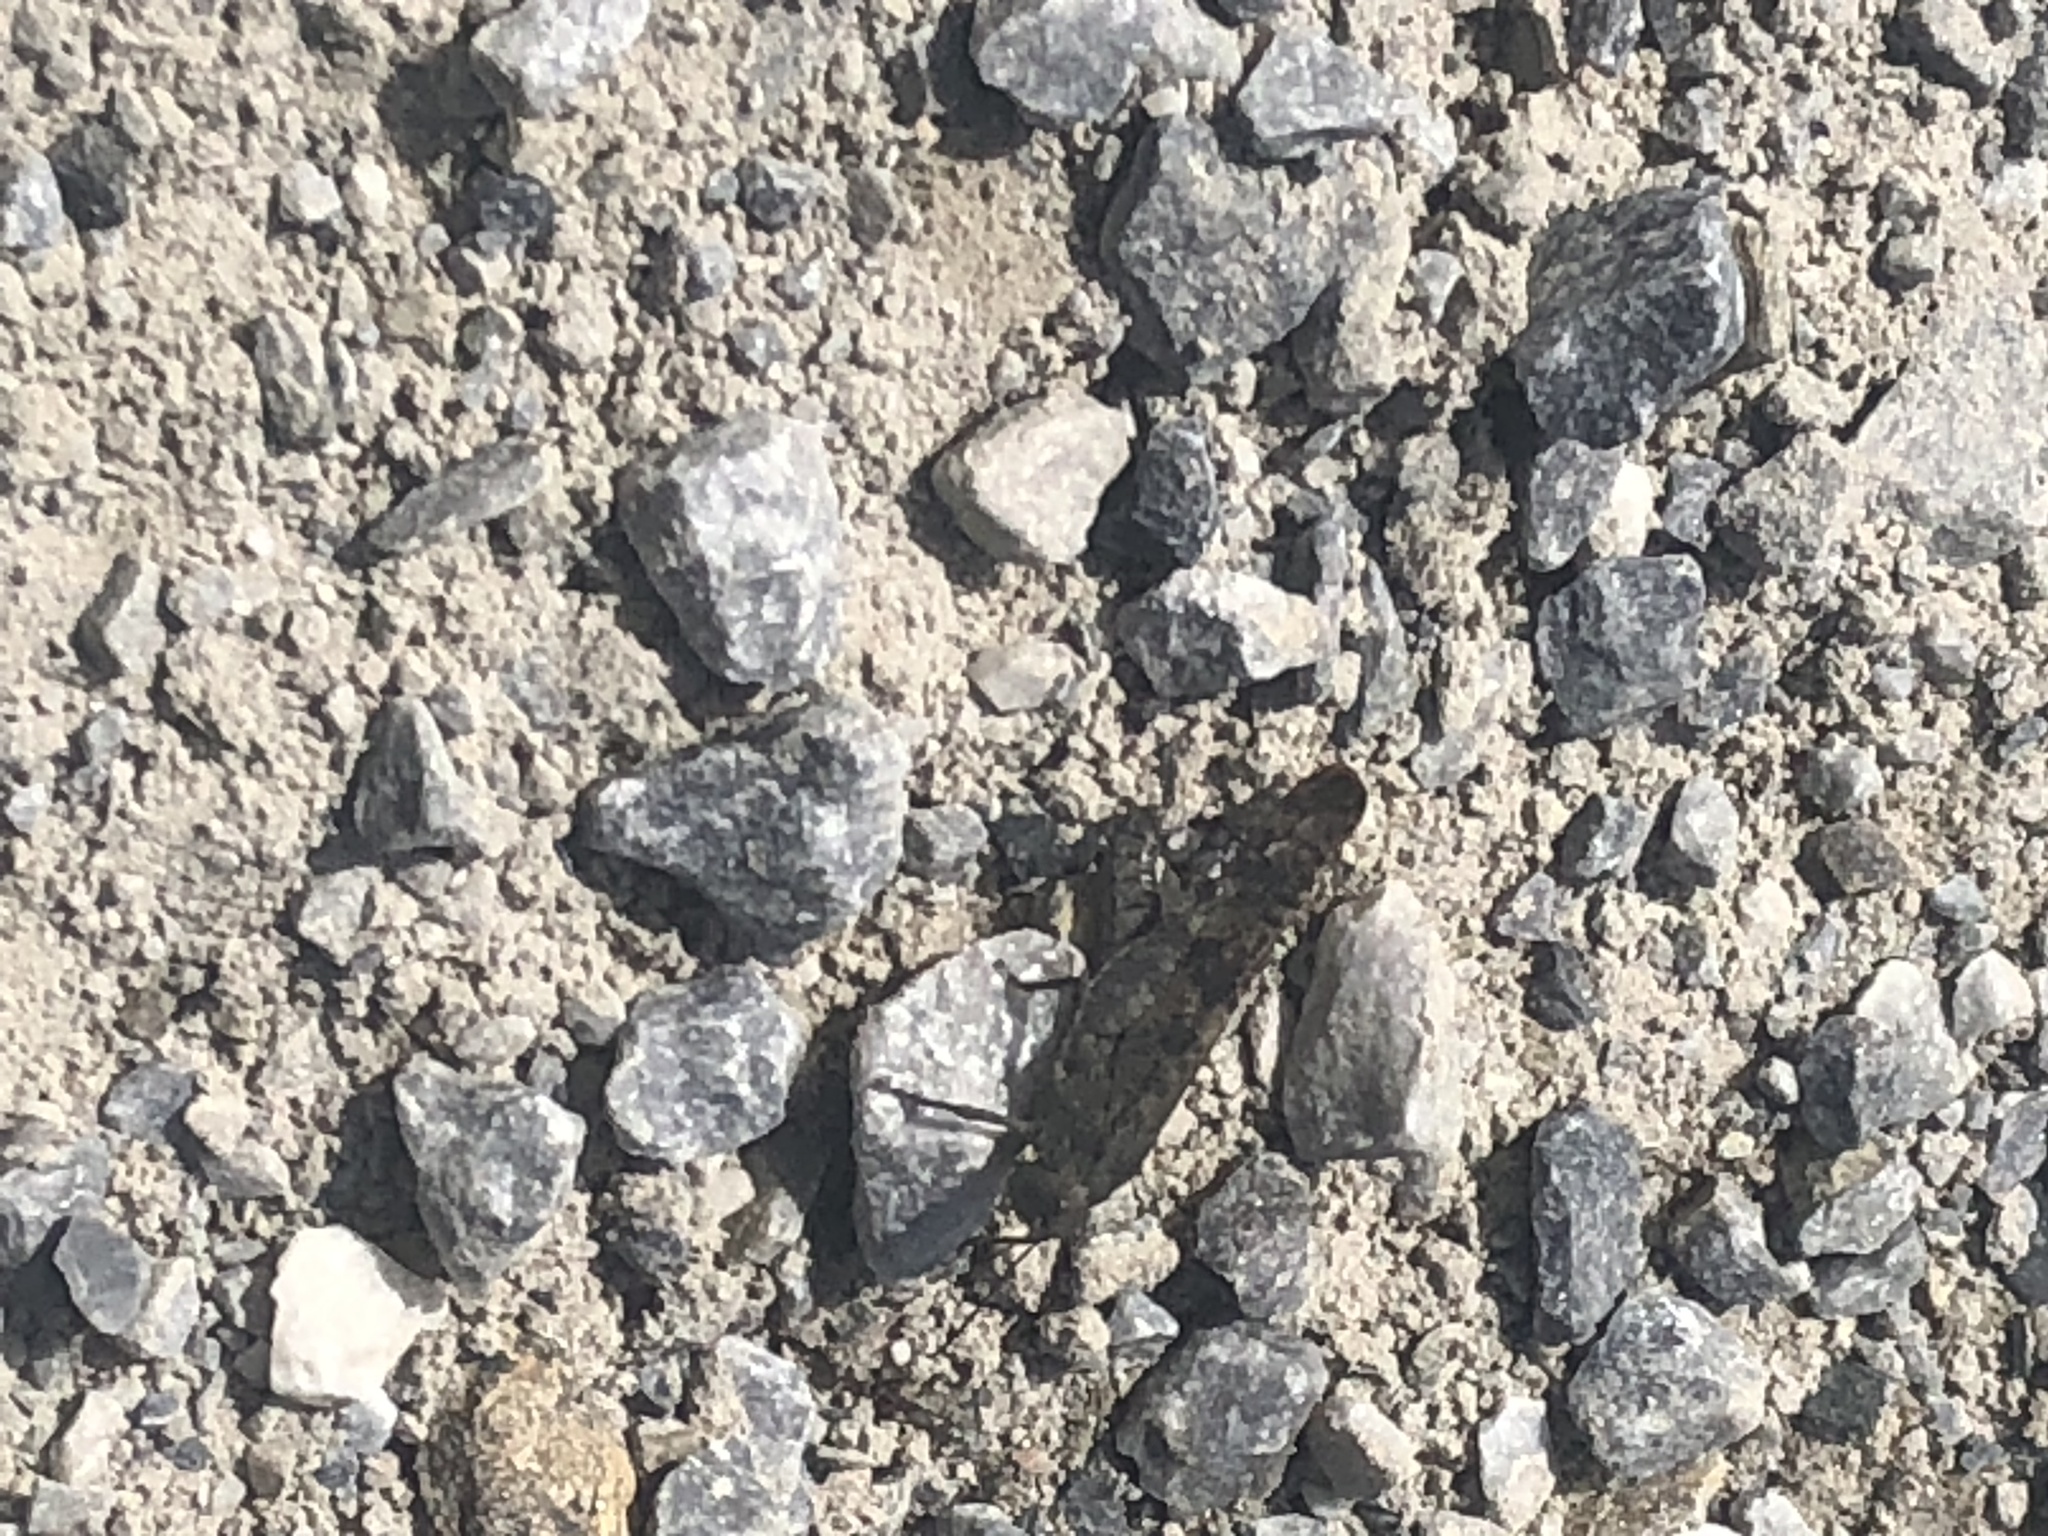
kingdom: Animalia
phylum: Arthropoda
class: Insecta
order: Orthoptera
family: Acrididae
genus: Trimerotropis
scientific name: Trimerotropis verruculata
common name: Crackling forest grasshopper
